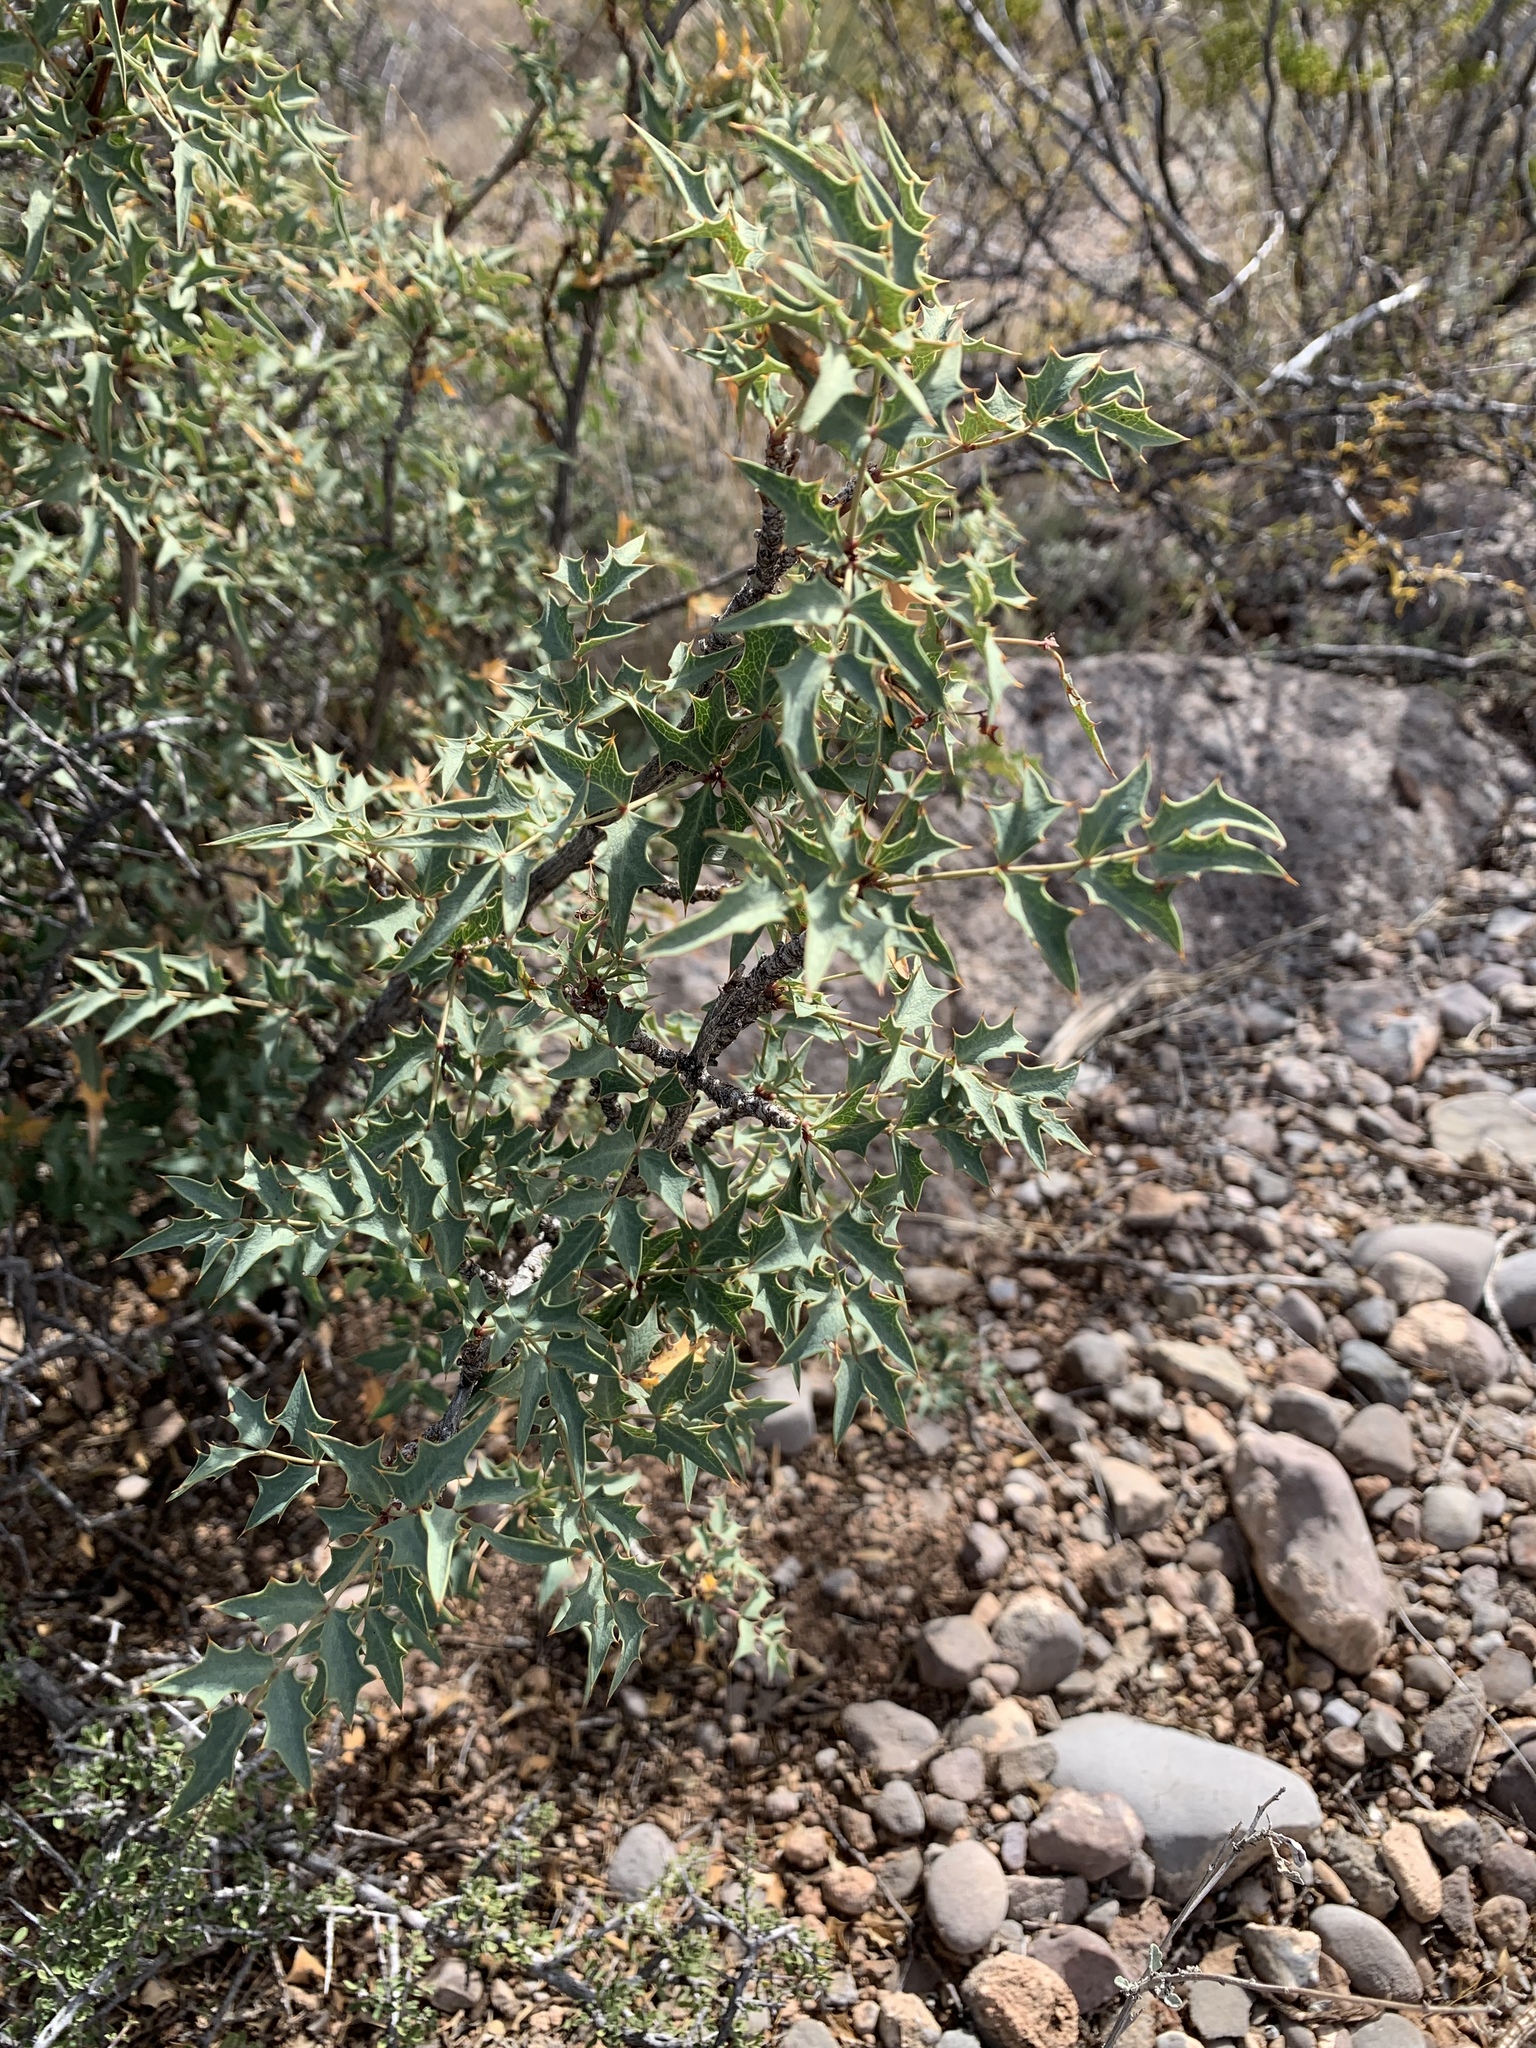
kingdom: Plantae
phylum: Tracheophyta
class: Magnoliopsida
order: Ranunculales
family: Berberidaceae
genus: Alloberberis
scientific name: Alloberberis haematocarpa
